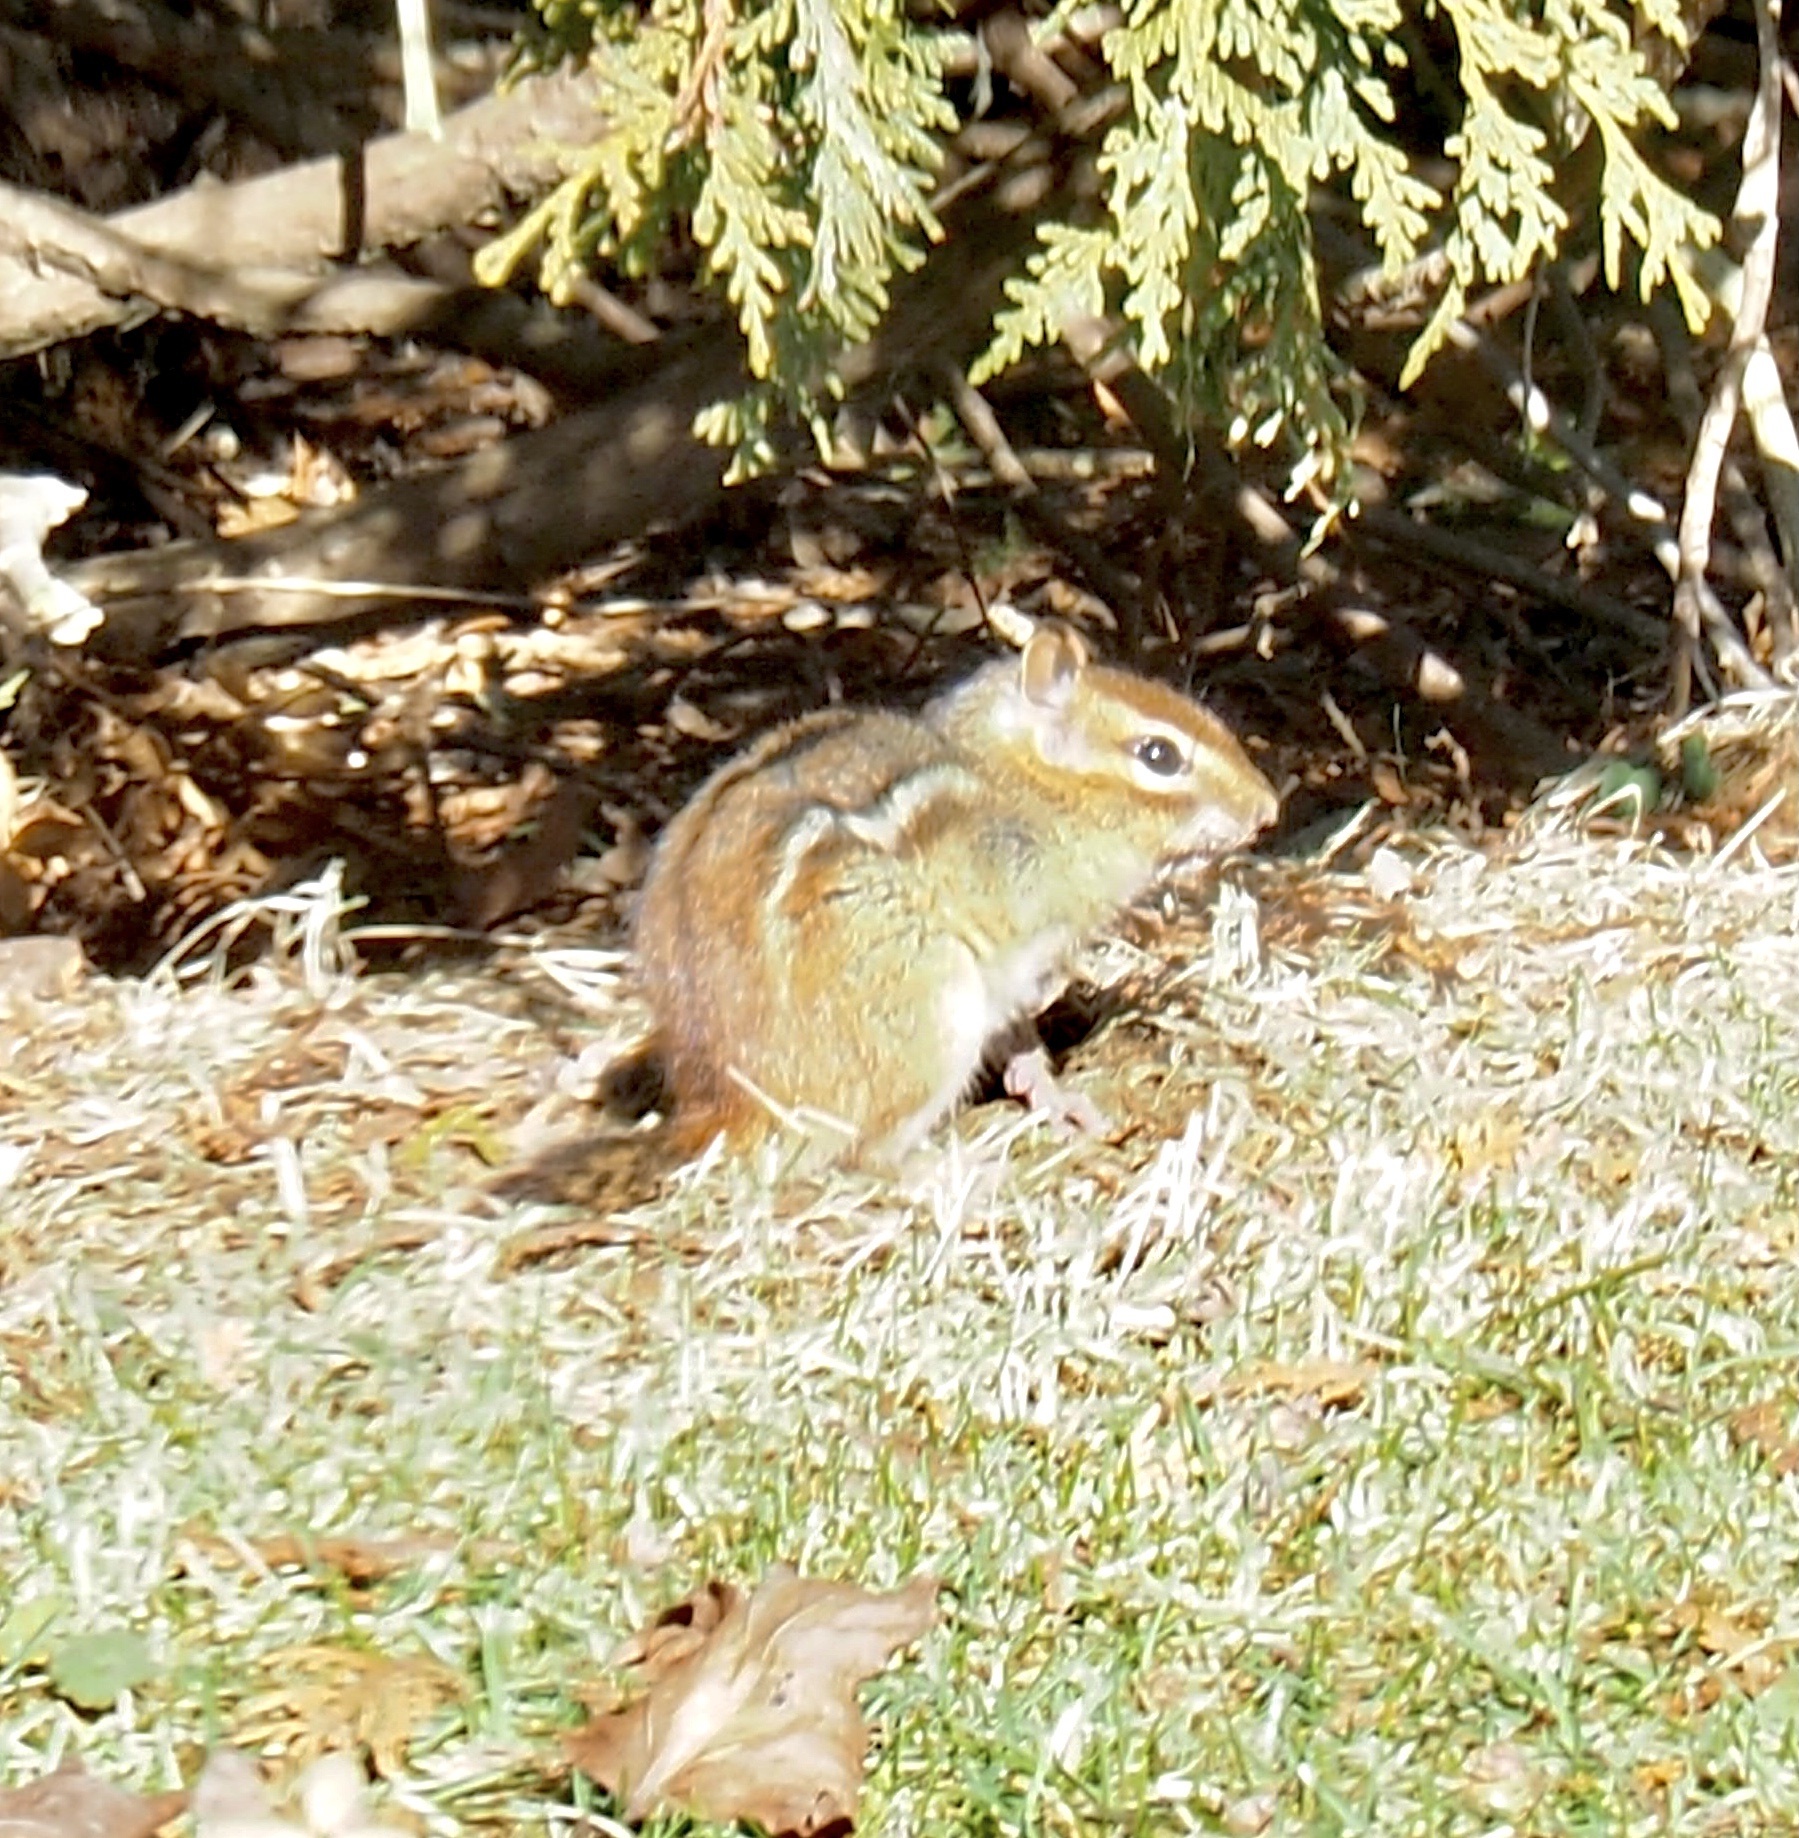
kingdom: Animalia
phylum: Chordata
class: Mammalia
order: Rodentia
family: Sciuridae
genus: Tamias
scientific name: Tamias striatus
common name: Eastern chipmunk
